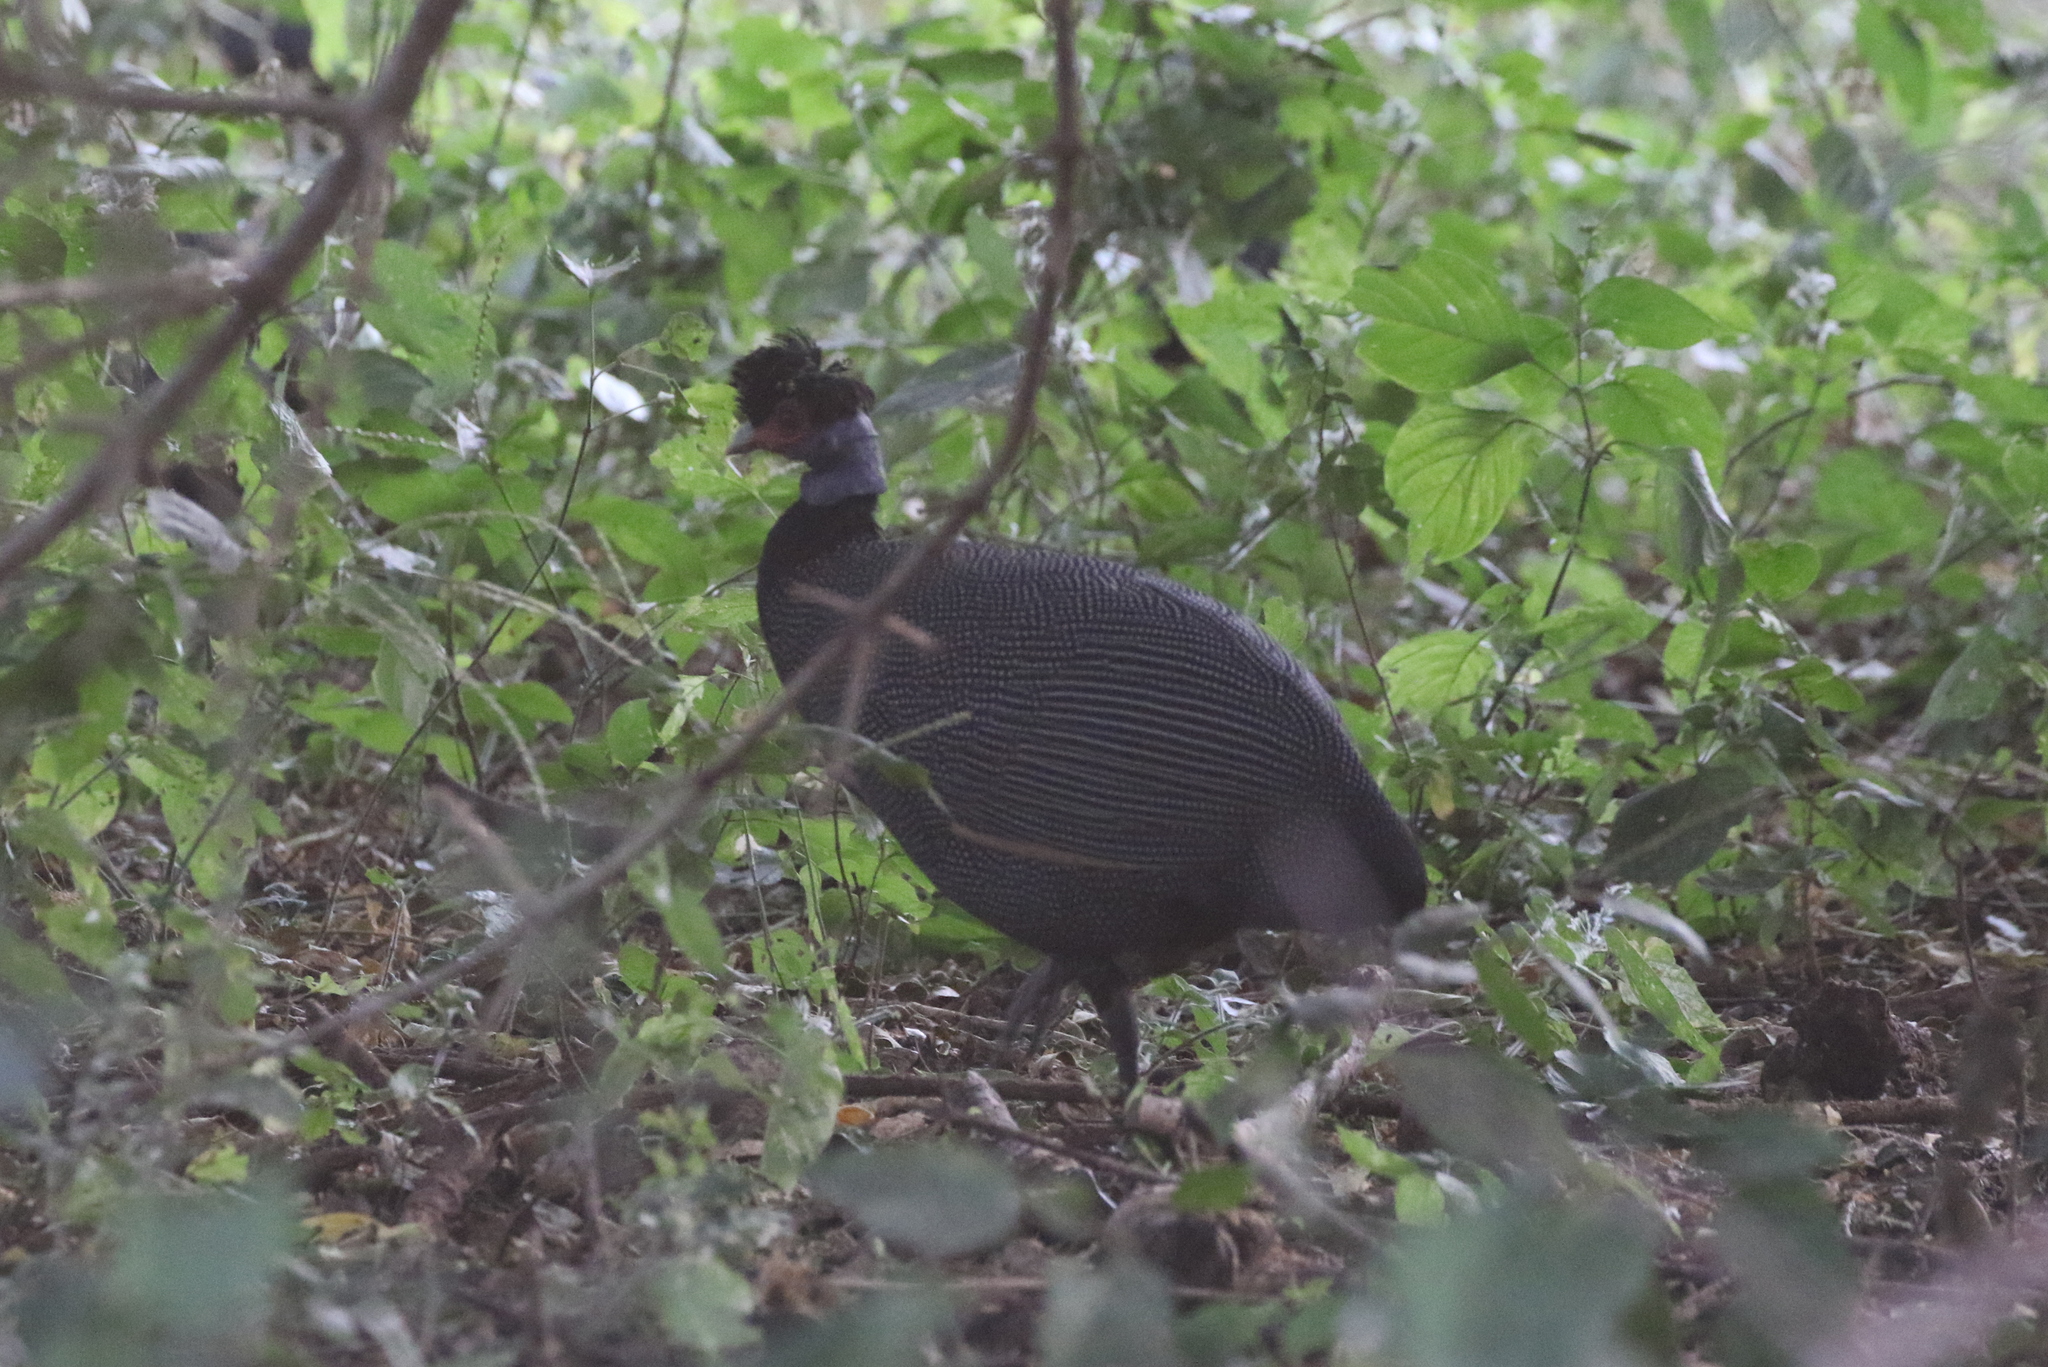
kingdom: Animalia
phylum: Chordata
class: Aves
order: Galliformes
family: Numididae
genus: Guttera
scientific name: Guttera pucherani
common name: Crested guineafowl
